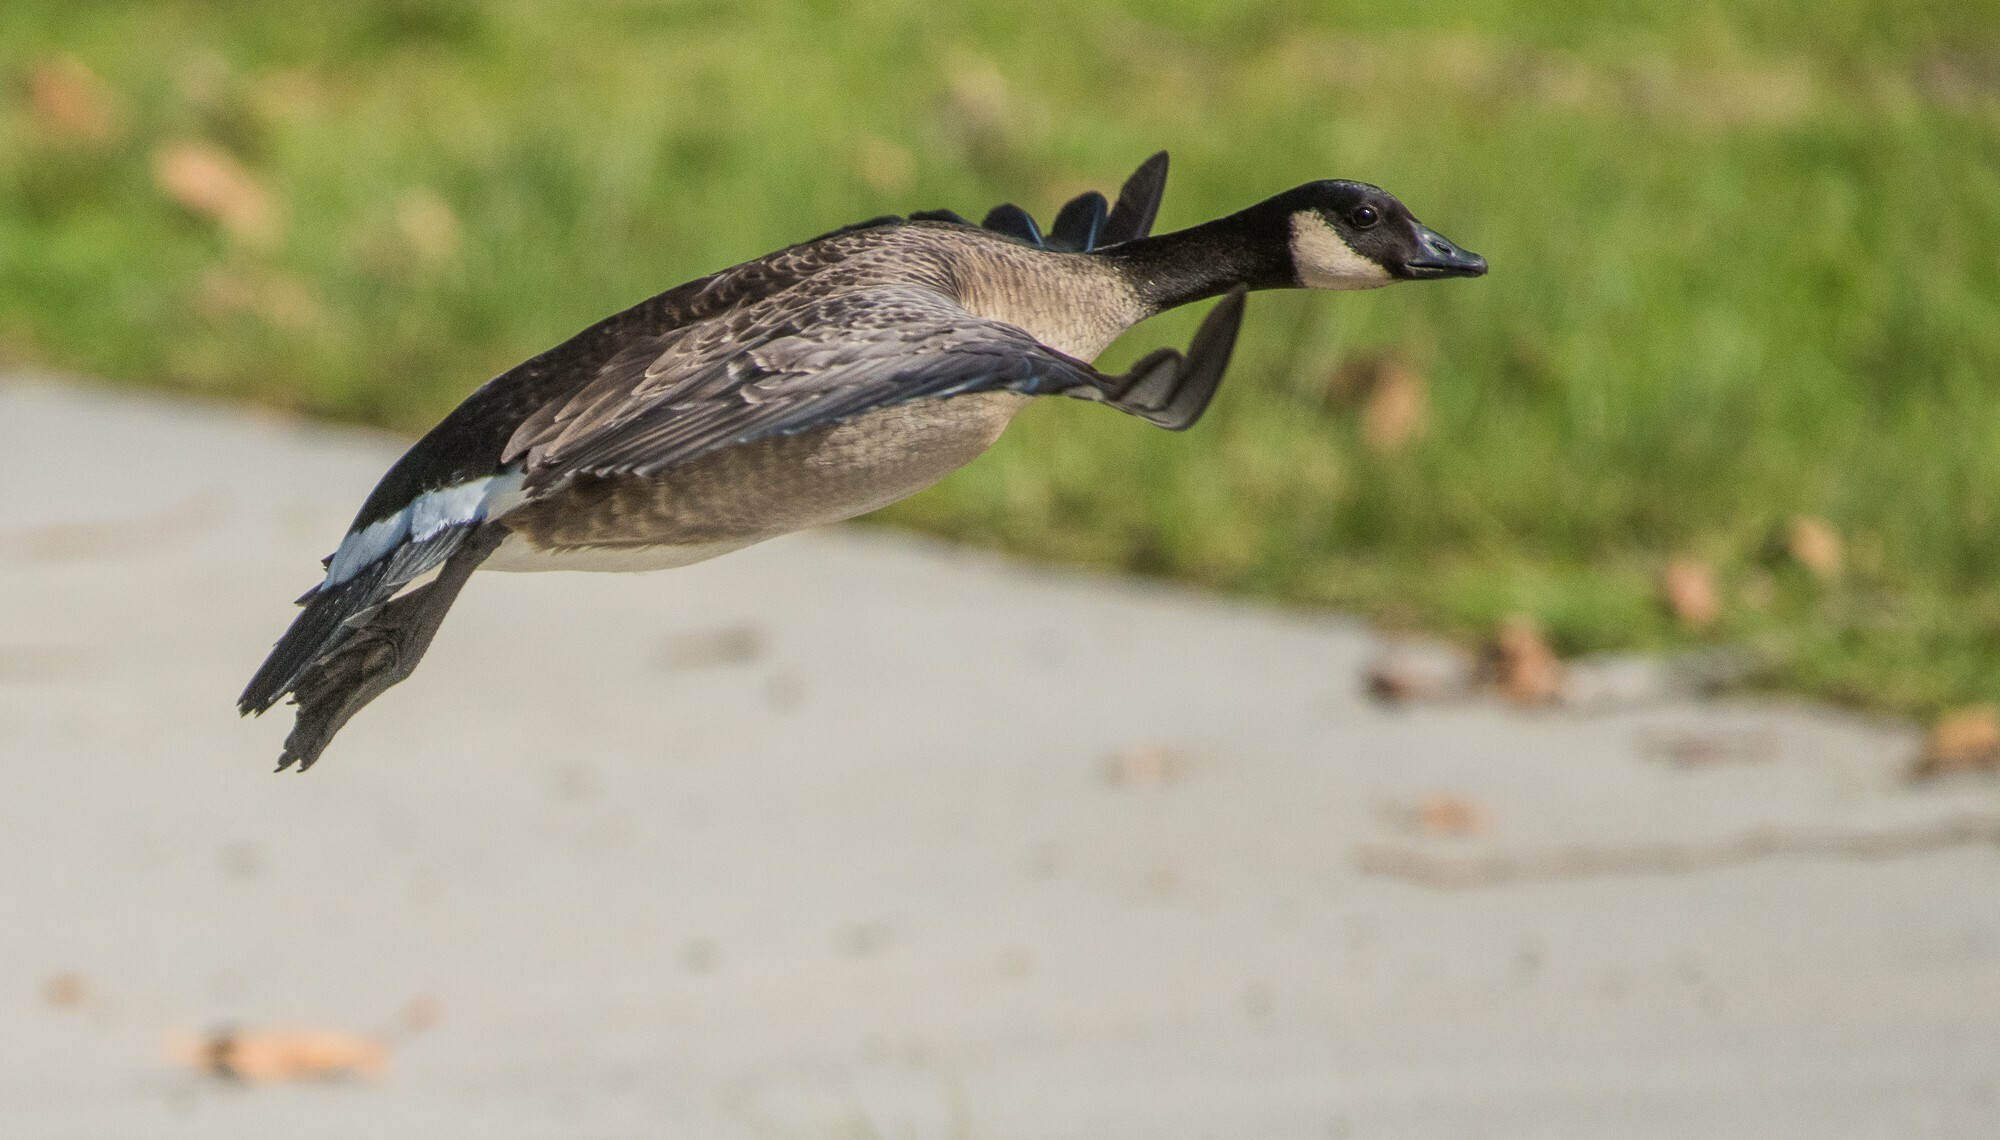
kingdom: Animalia
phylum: Chordata
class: Aves
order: Anseriformes
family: Anatidae
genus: Branta
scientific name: Branta hutchinsii
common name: Cackling goose
